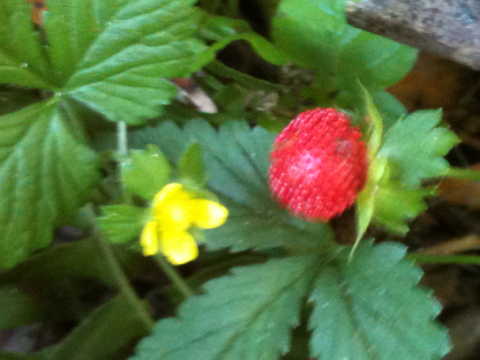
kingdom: Plantae
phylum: Tracheophyta
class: Magnoliopsida
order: Rosales
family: Rosaceae
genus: Potentilla
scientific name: Potentilla indica
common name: Yellow-flowered strawberry
